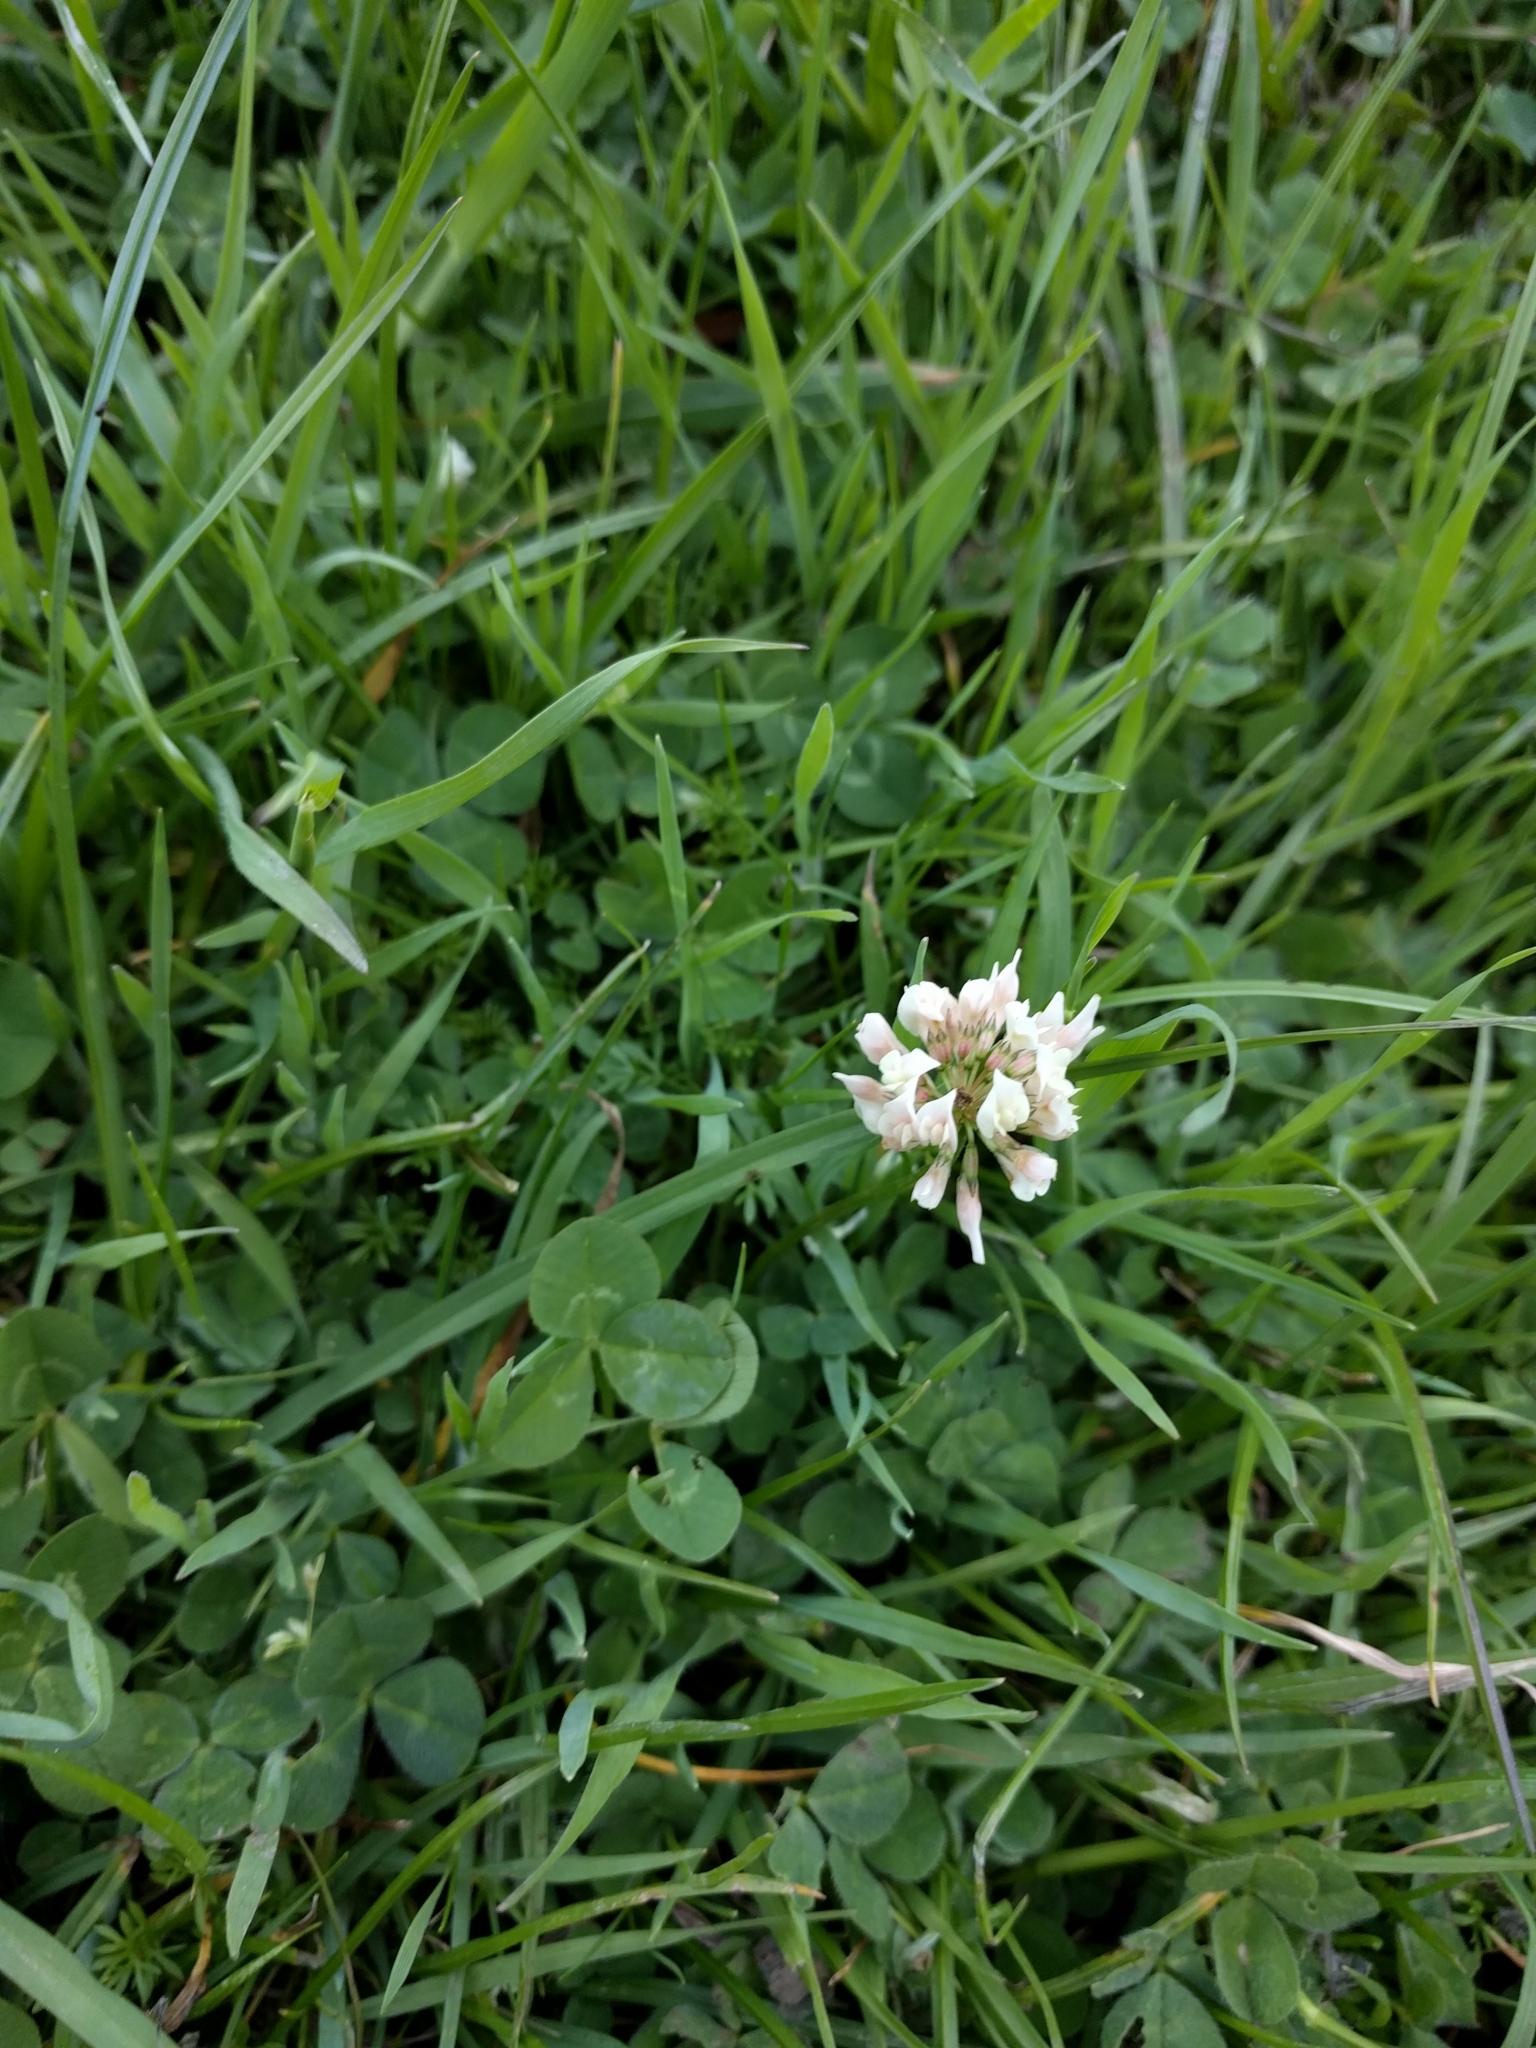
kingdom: Plantae
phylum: Tracheophyta
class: Magnoliopsida
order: Fabales
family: Fabaceae
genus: Trifolium
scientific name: Trifolium repens
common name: White clover
